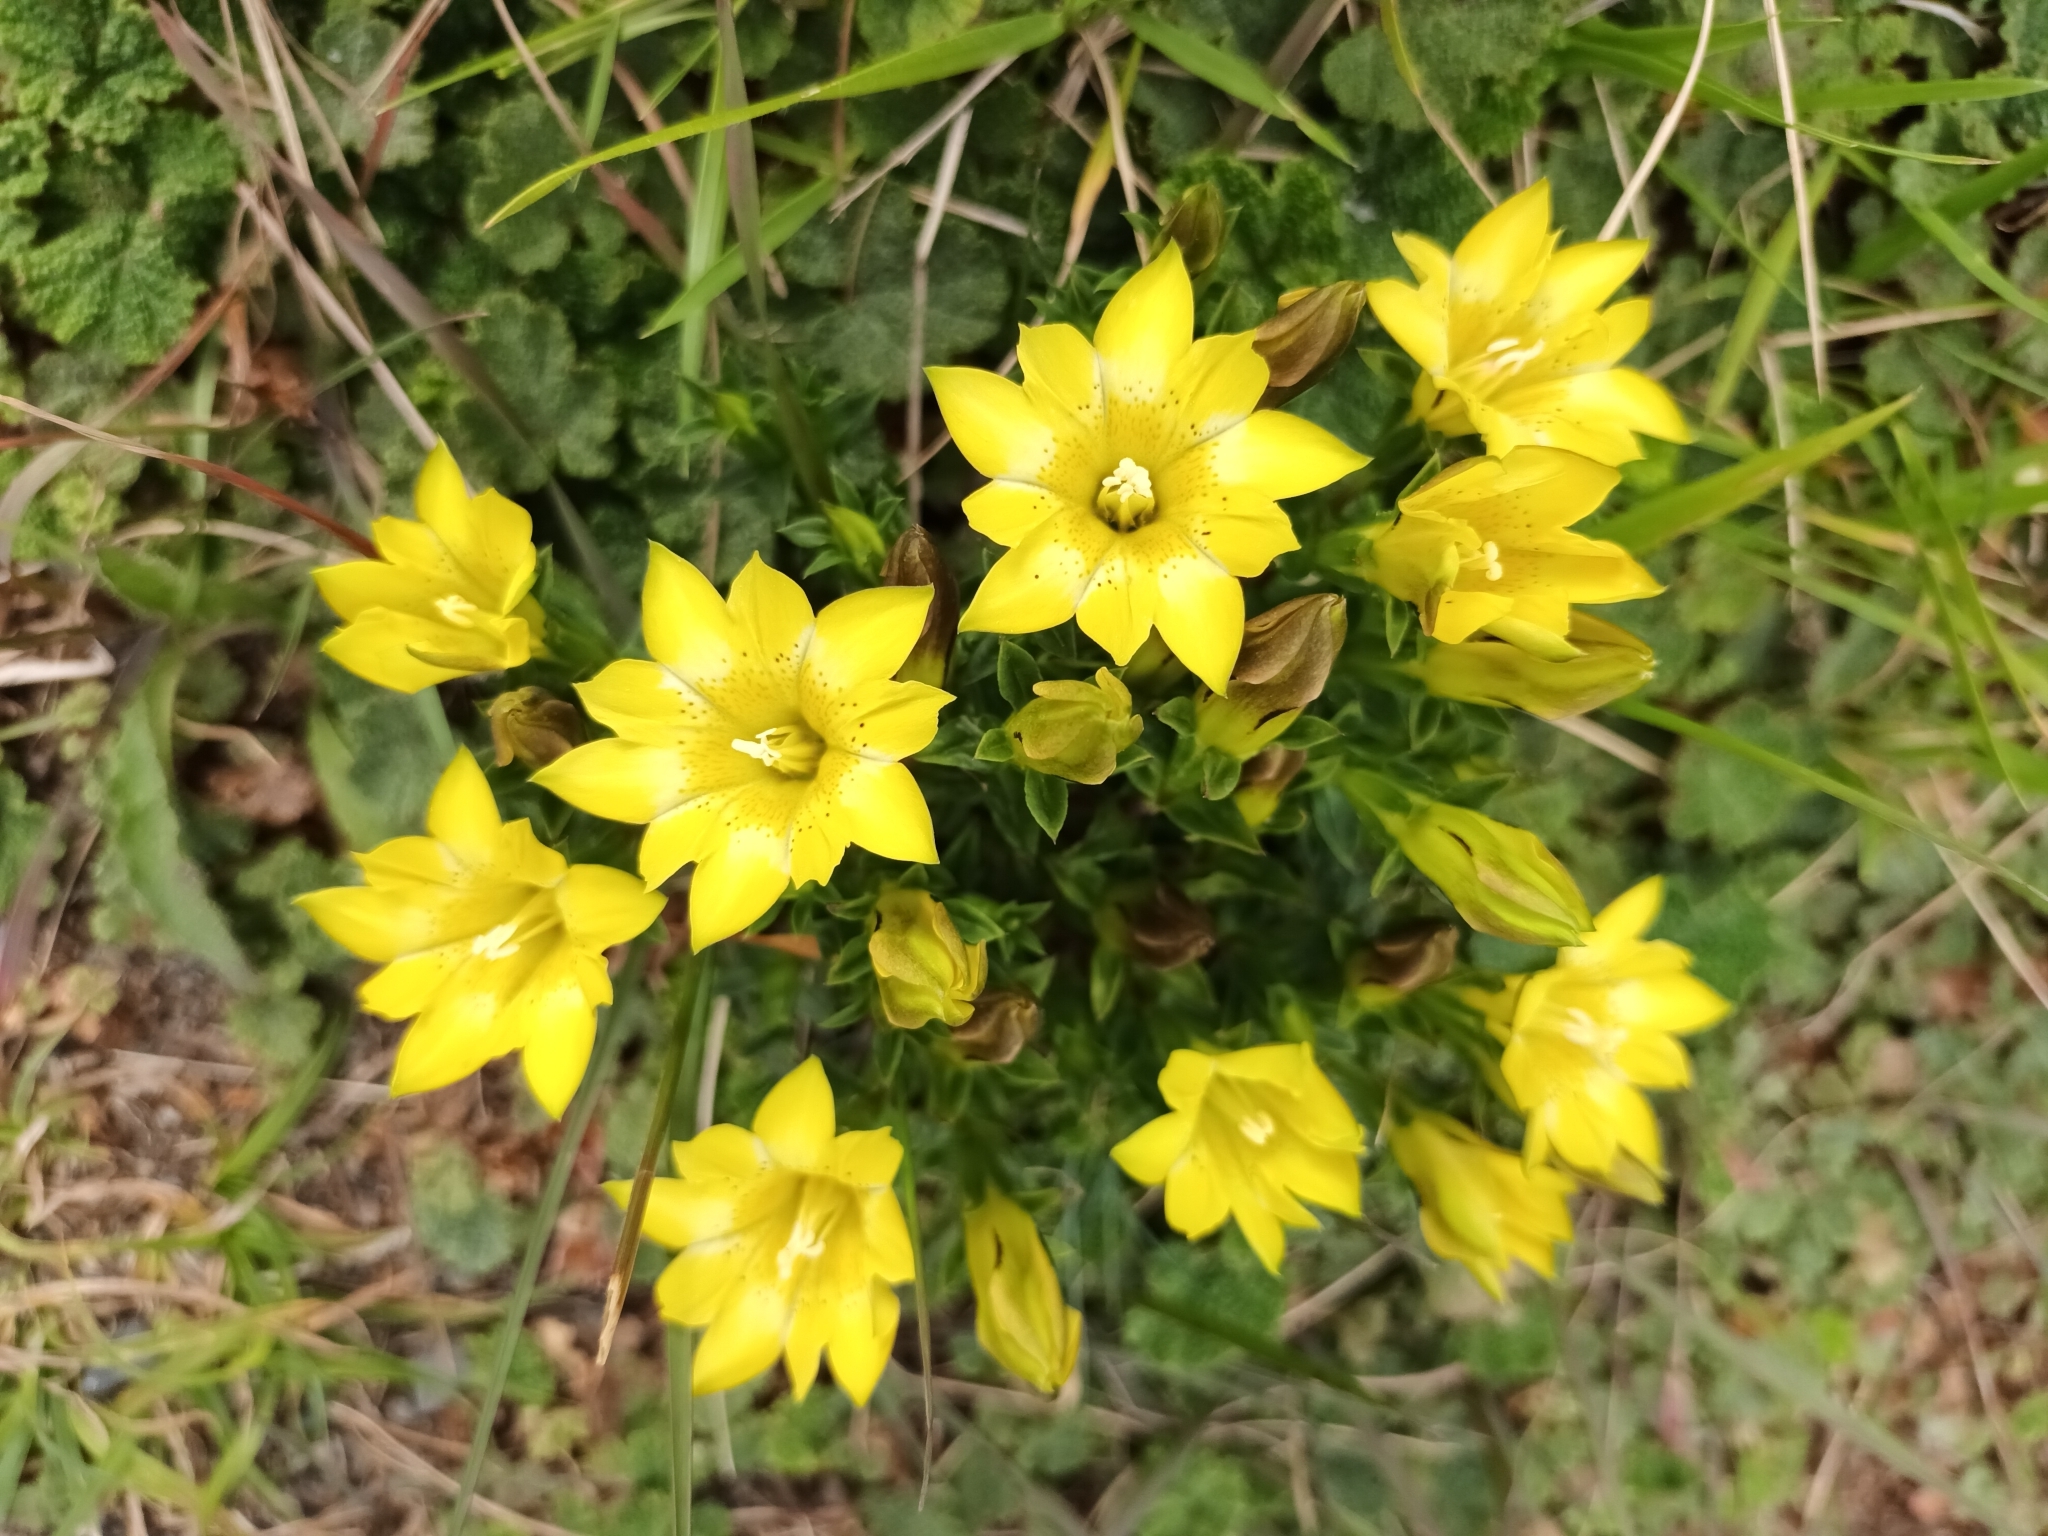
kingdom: Plantae
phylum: Tracheophyta
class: Magnoliopsida
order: Gentianales
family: Gentianaceae
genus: Gentiana
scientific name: Gentiana scabrida
